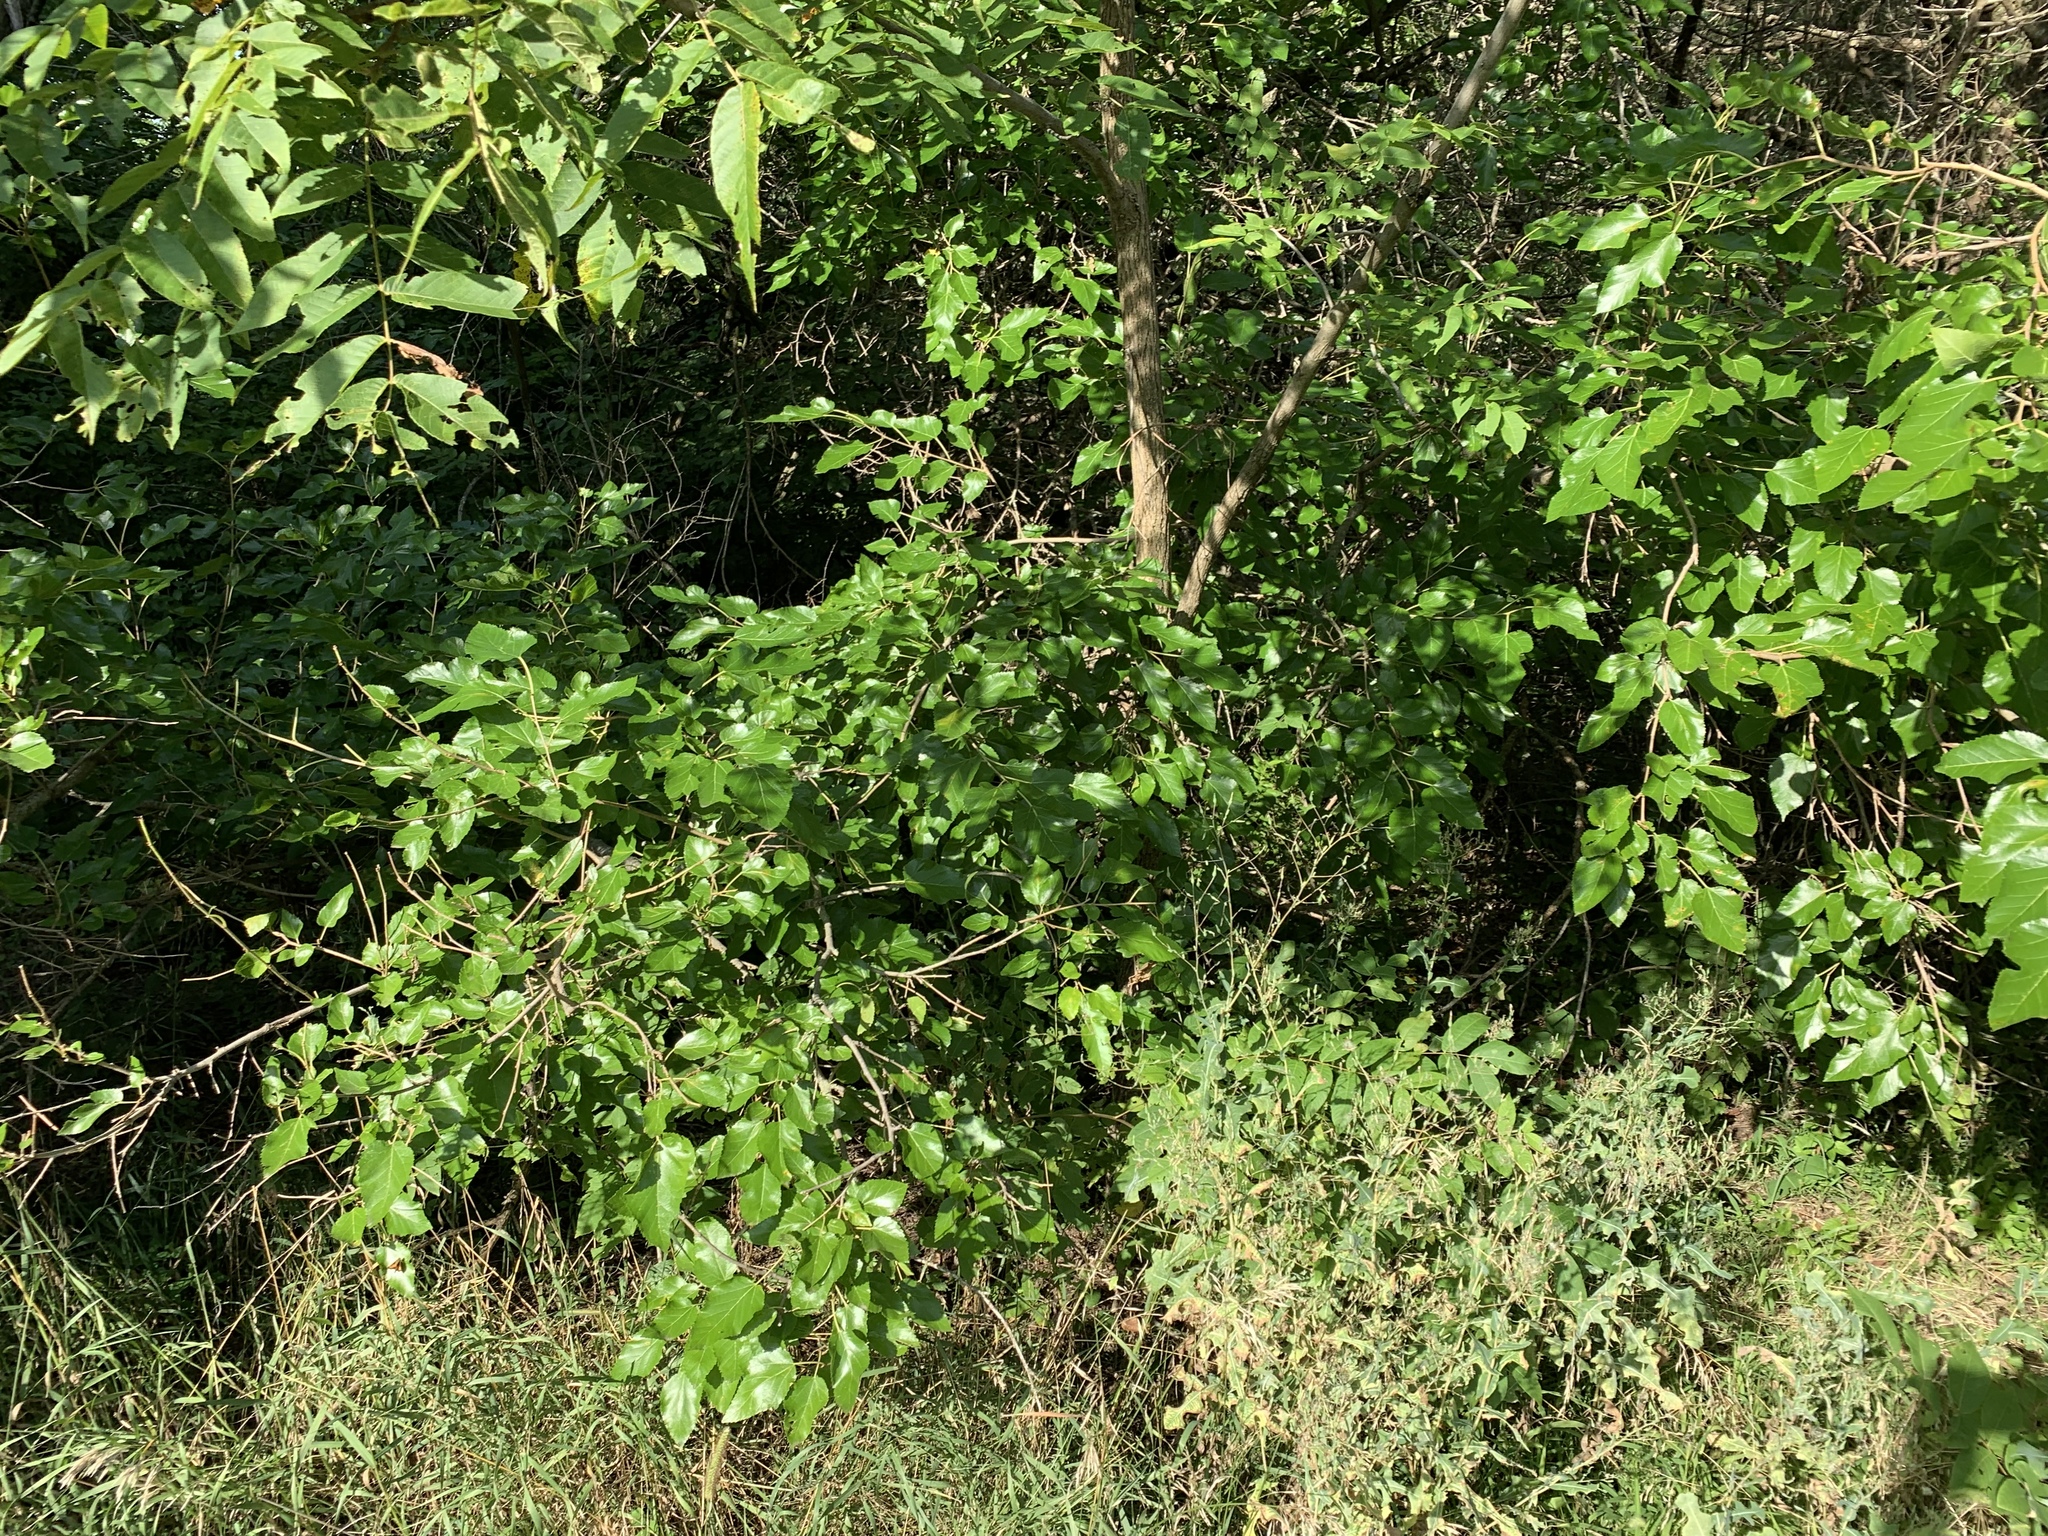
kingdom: Plantae
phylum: Tracheophyta
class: Magnoliopsida
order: Rosales
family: Moraceae
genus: Morus
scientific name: Morus alba
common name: White mulberry
